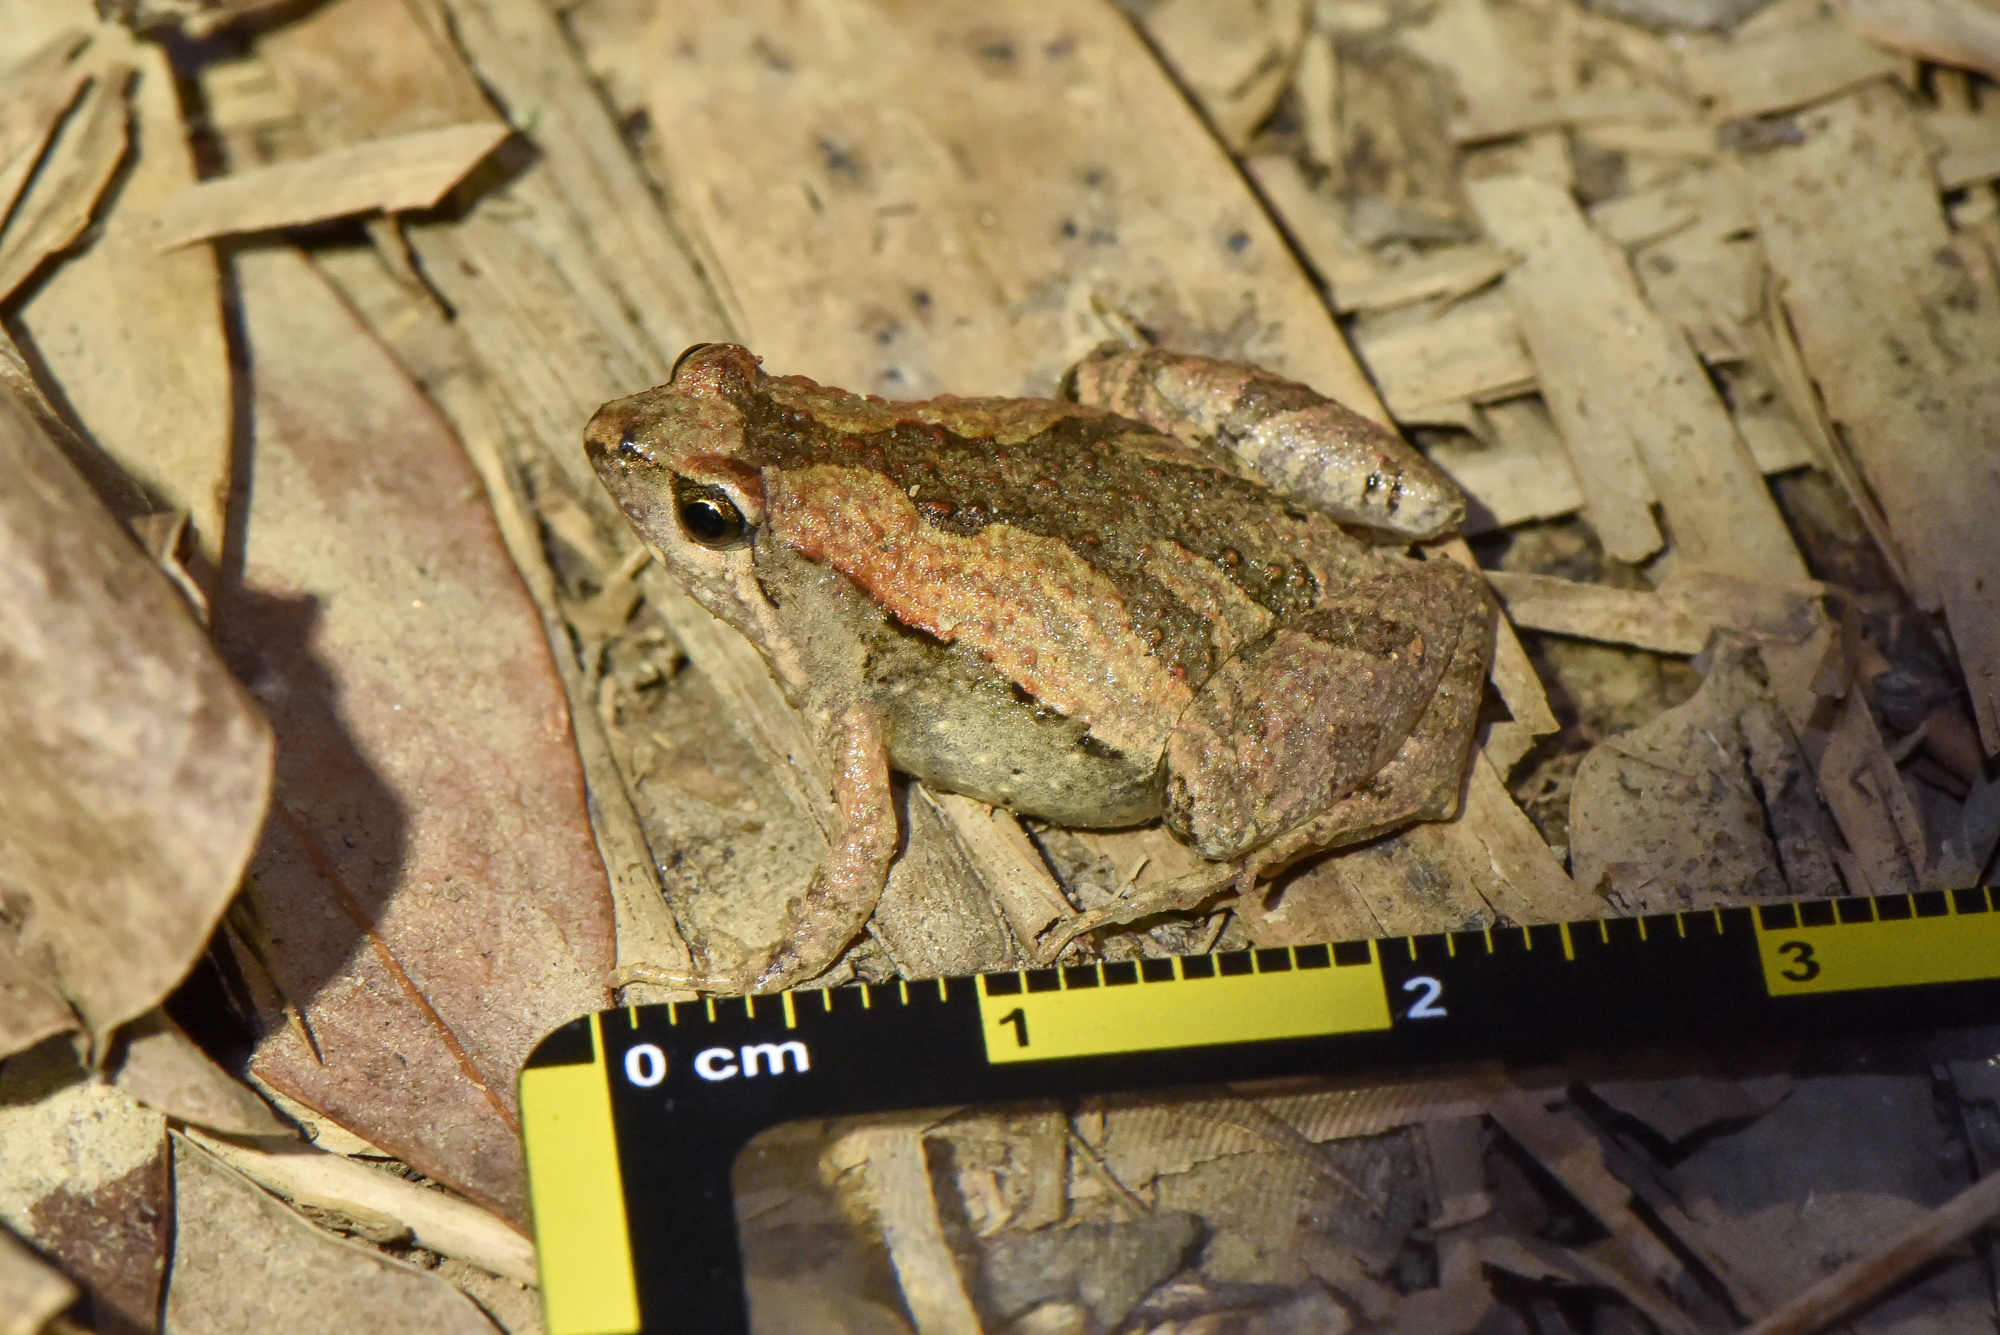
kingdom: Animalia
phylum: Chordata
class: Amphibia
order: Anura
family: Microhylidae
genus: Microhyla
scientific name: Microhyla fissipes
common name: Ornate narrow-mouthed frog
